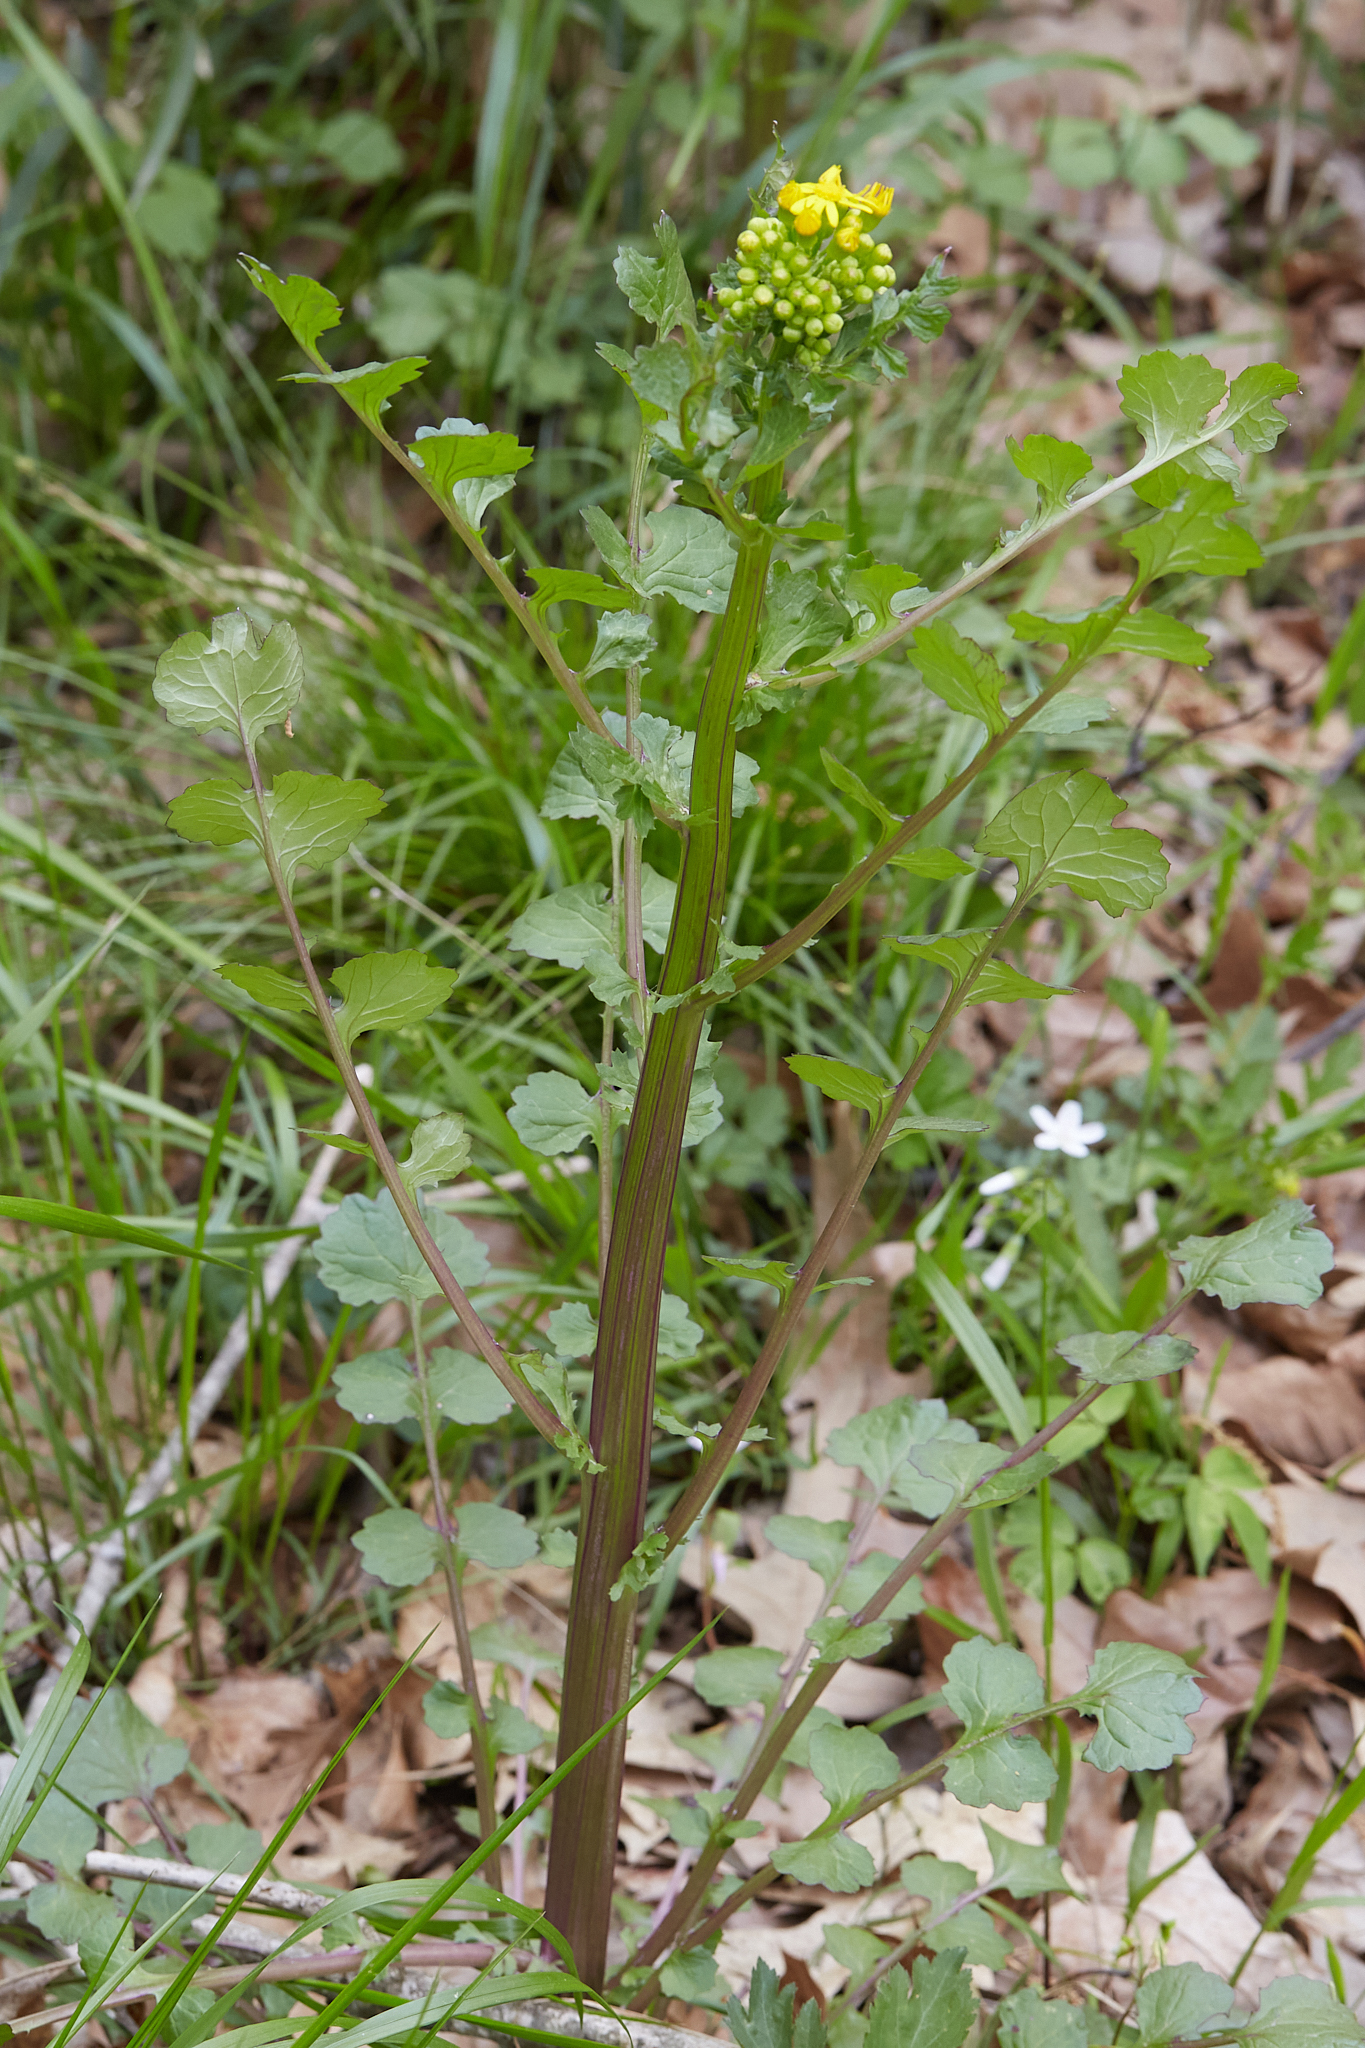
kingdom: Plantae
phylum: Tracheophyta
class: Magnoliopsida
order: Asterales
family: Asteraceae
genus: Packera
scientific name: Packera glabella
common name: Butterweed
